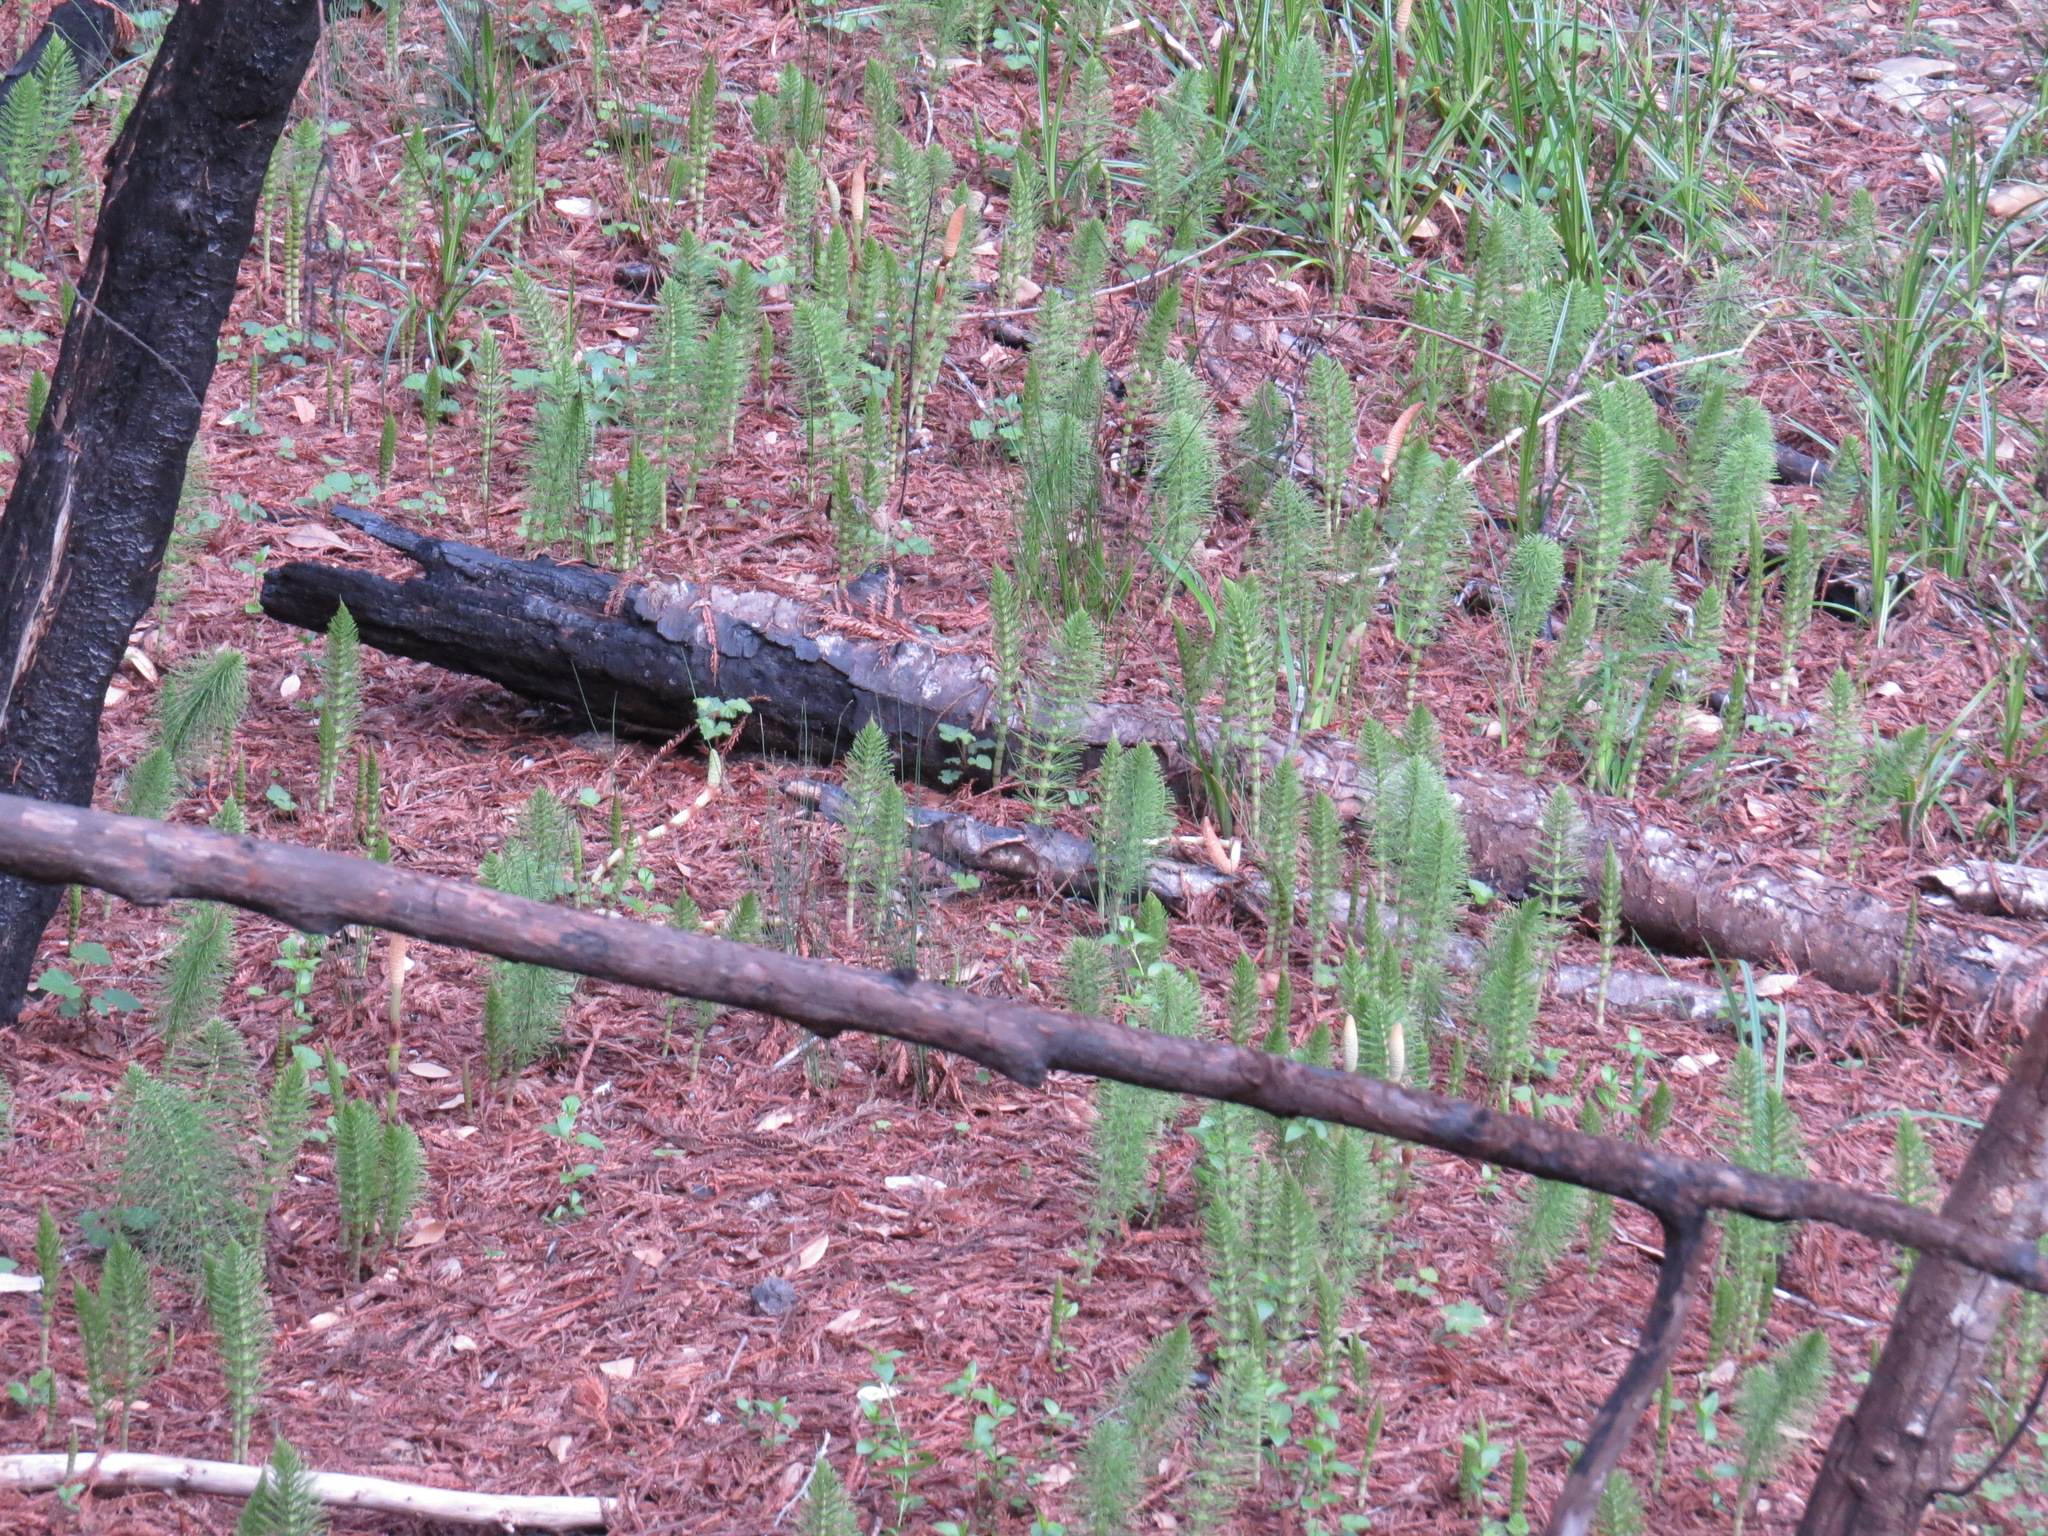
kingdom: Plantae
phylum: Tracheophyta
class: Polypodiopsida
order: Equisetales
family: Equisetaceae
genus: Equisetum
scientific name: Equisetum braunii
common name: Braun's horsetail
